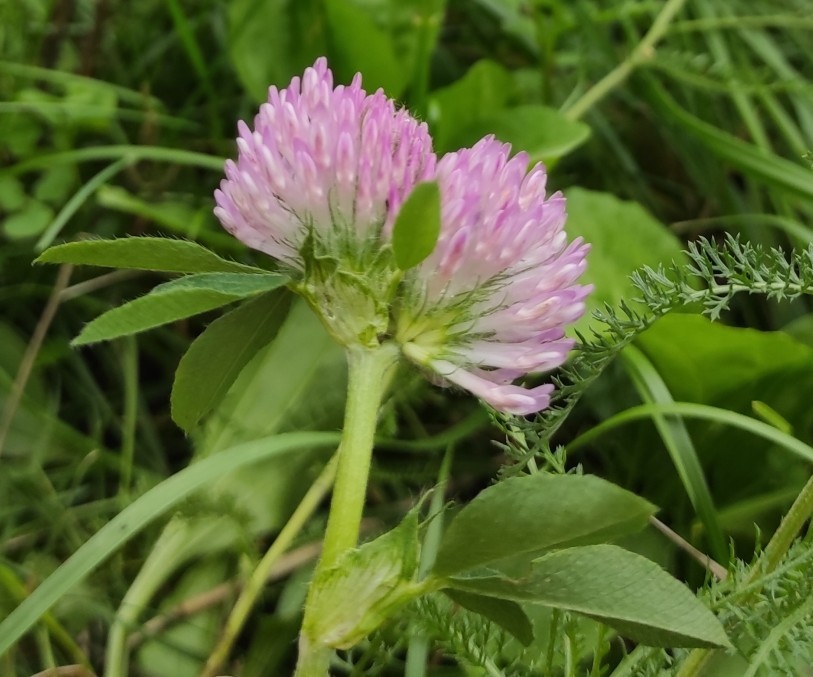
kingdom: Plantae
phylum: Tracheophyta
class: Magnoliopsida
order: Fabales
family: Fabaceae
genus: Trifolium
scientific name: Trifolium pratense
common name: Red clover
